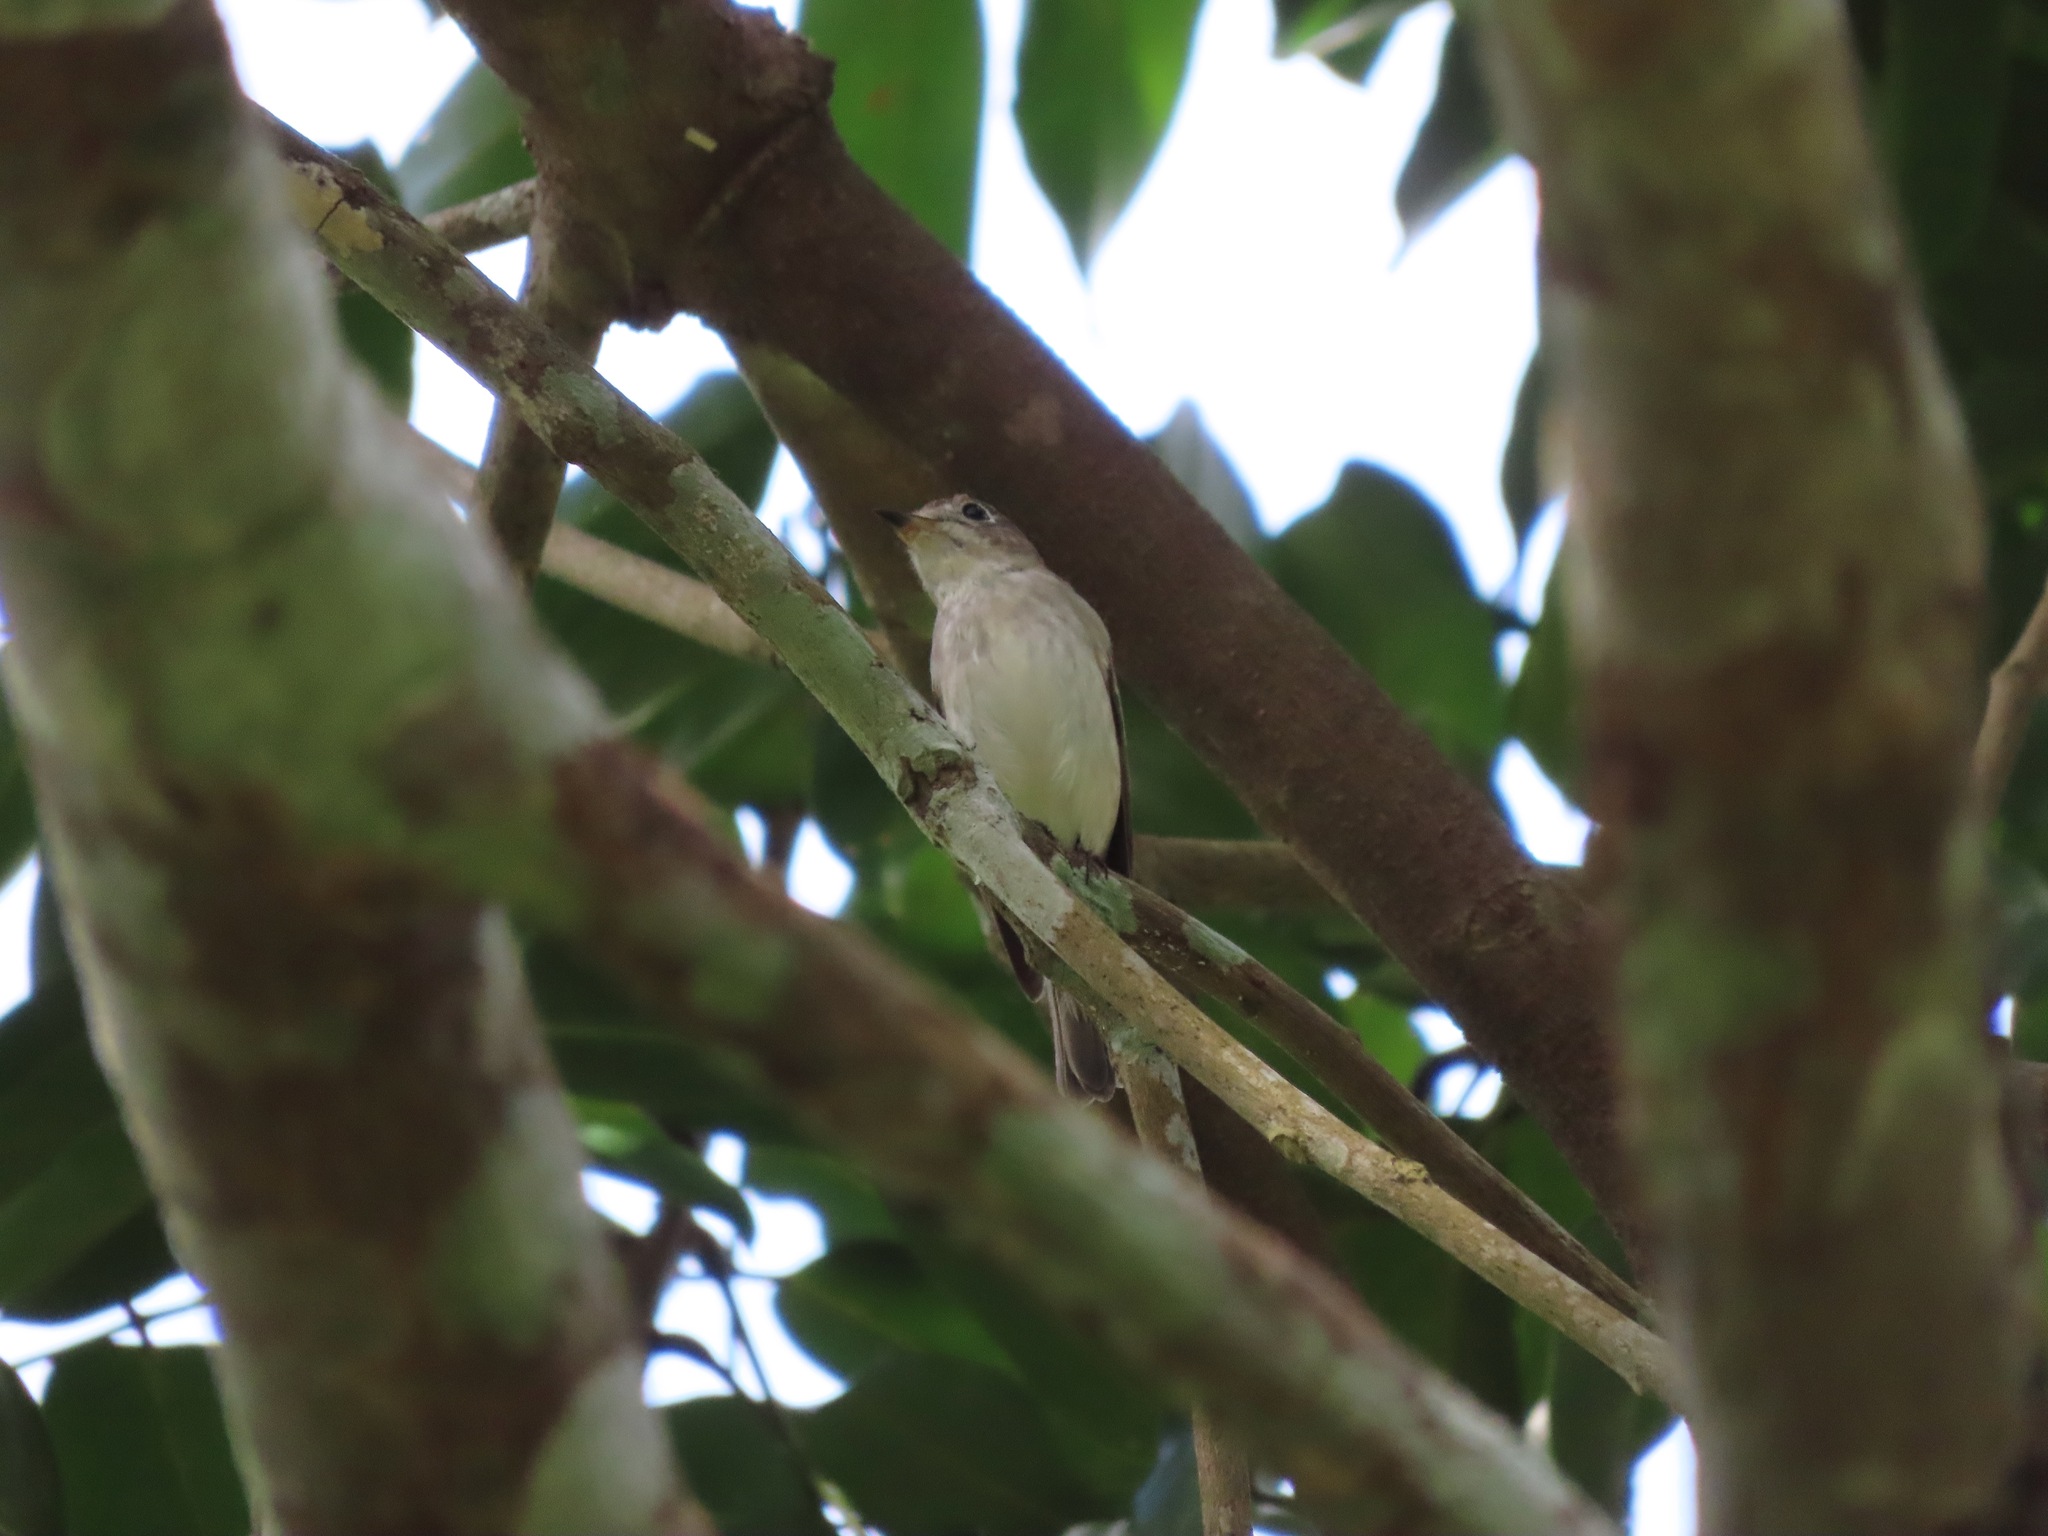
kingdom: Animalia
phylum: Chordata
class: Aves
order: Passeriformes
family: Muscicapidae
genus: Muscicapa
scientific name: Muscicapa latirostris
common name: Asian brown flycatcher
